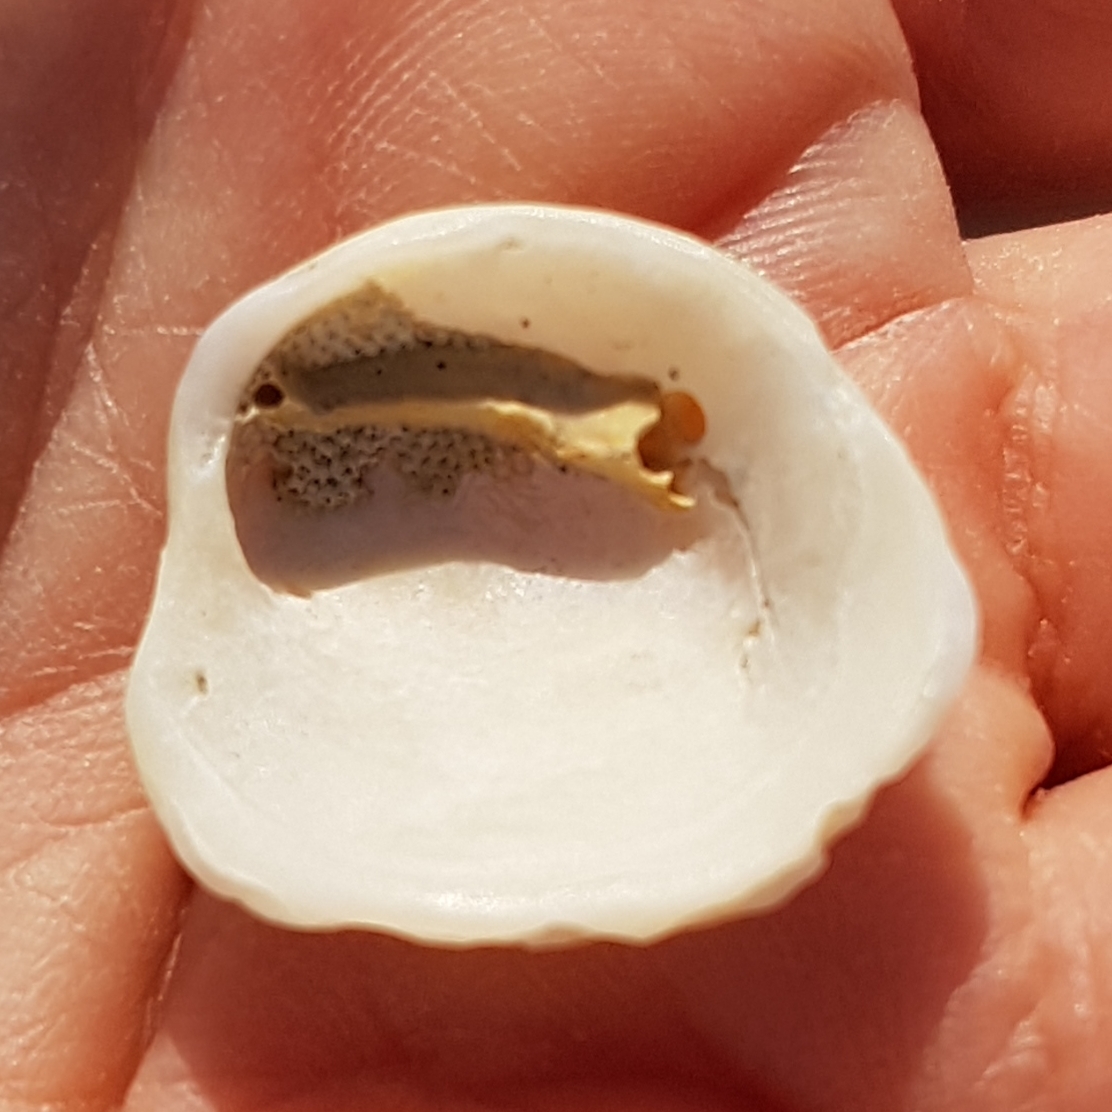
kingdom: Animalia
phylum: Mollusca
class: Bivalvia
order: Venerida
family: Chamidae
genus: Chama
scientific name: Chama gryphoides
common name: Common jewel box
